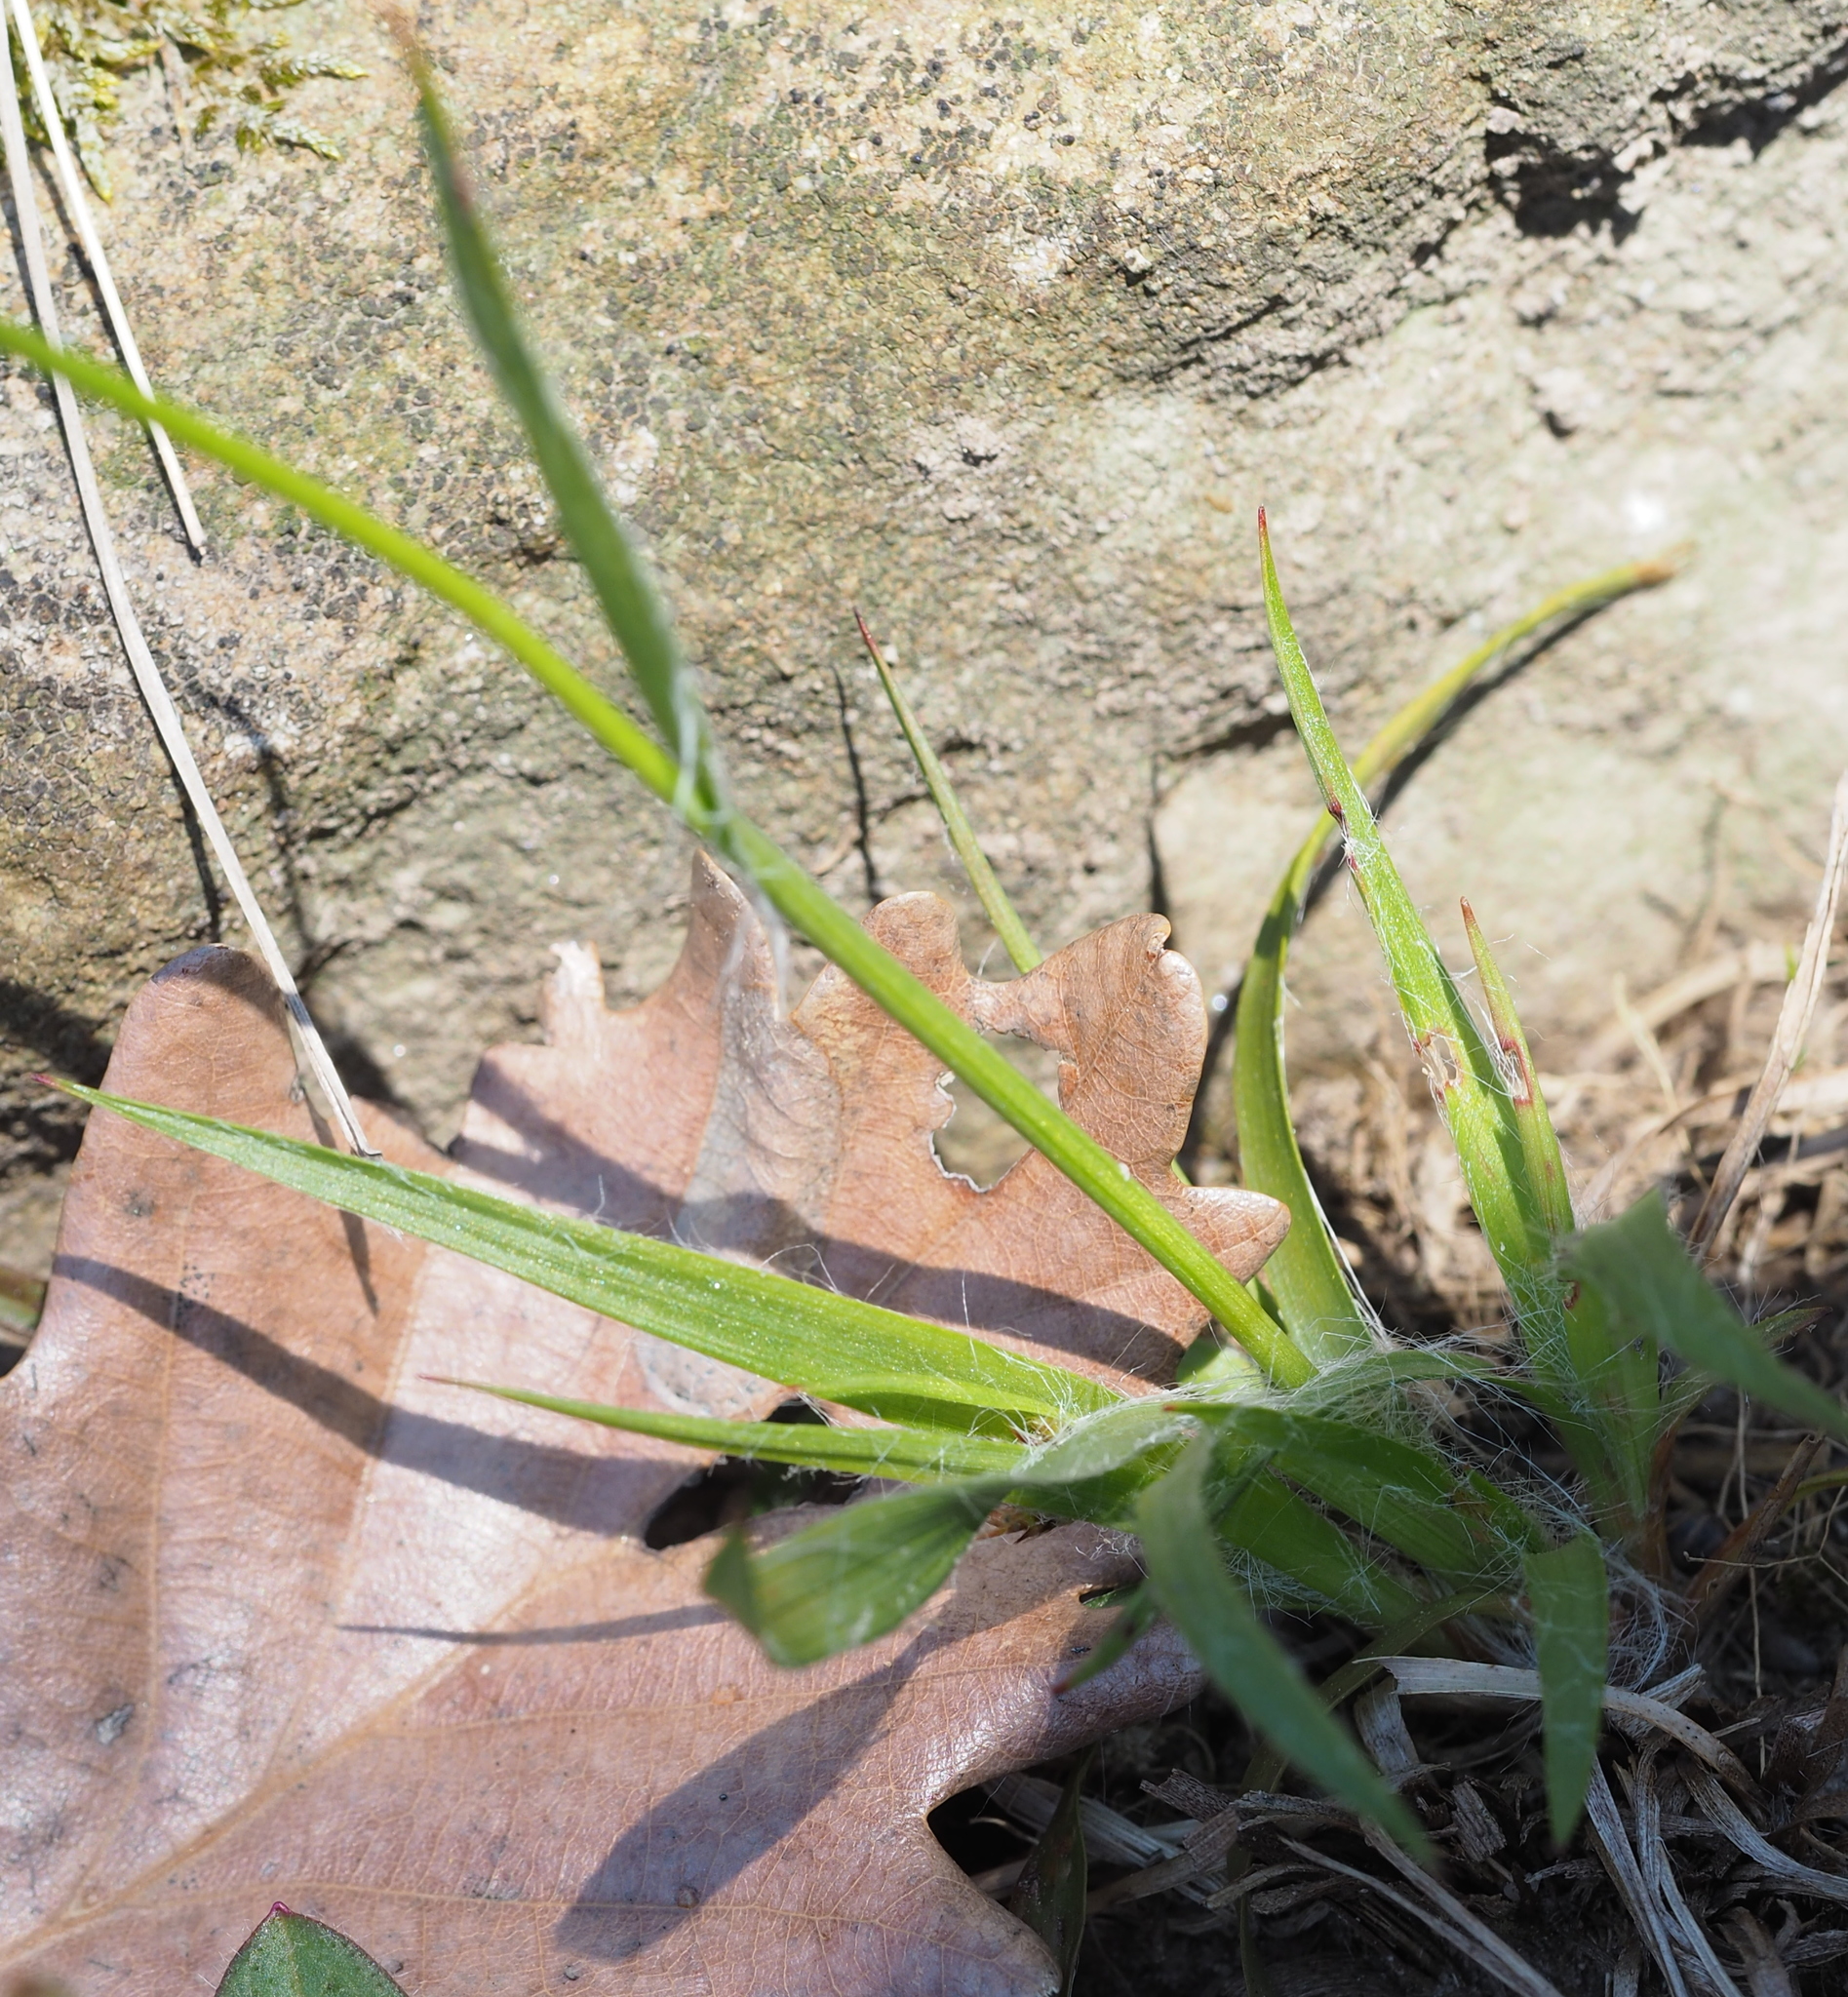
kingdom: Plantae
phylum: Tracheophyta
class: Liliopsida
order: Poales
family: Juncaceae
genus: Luzula
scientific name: Luzula campestris
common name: Field wood-rush
